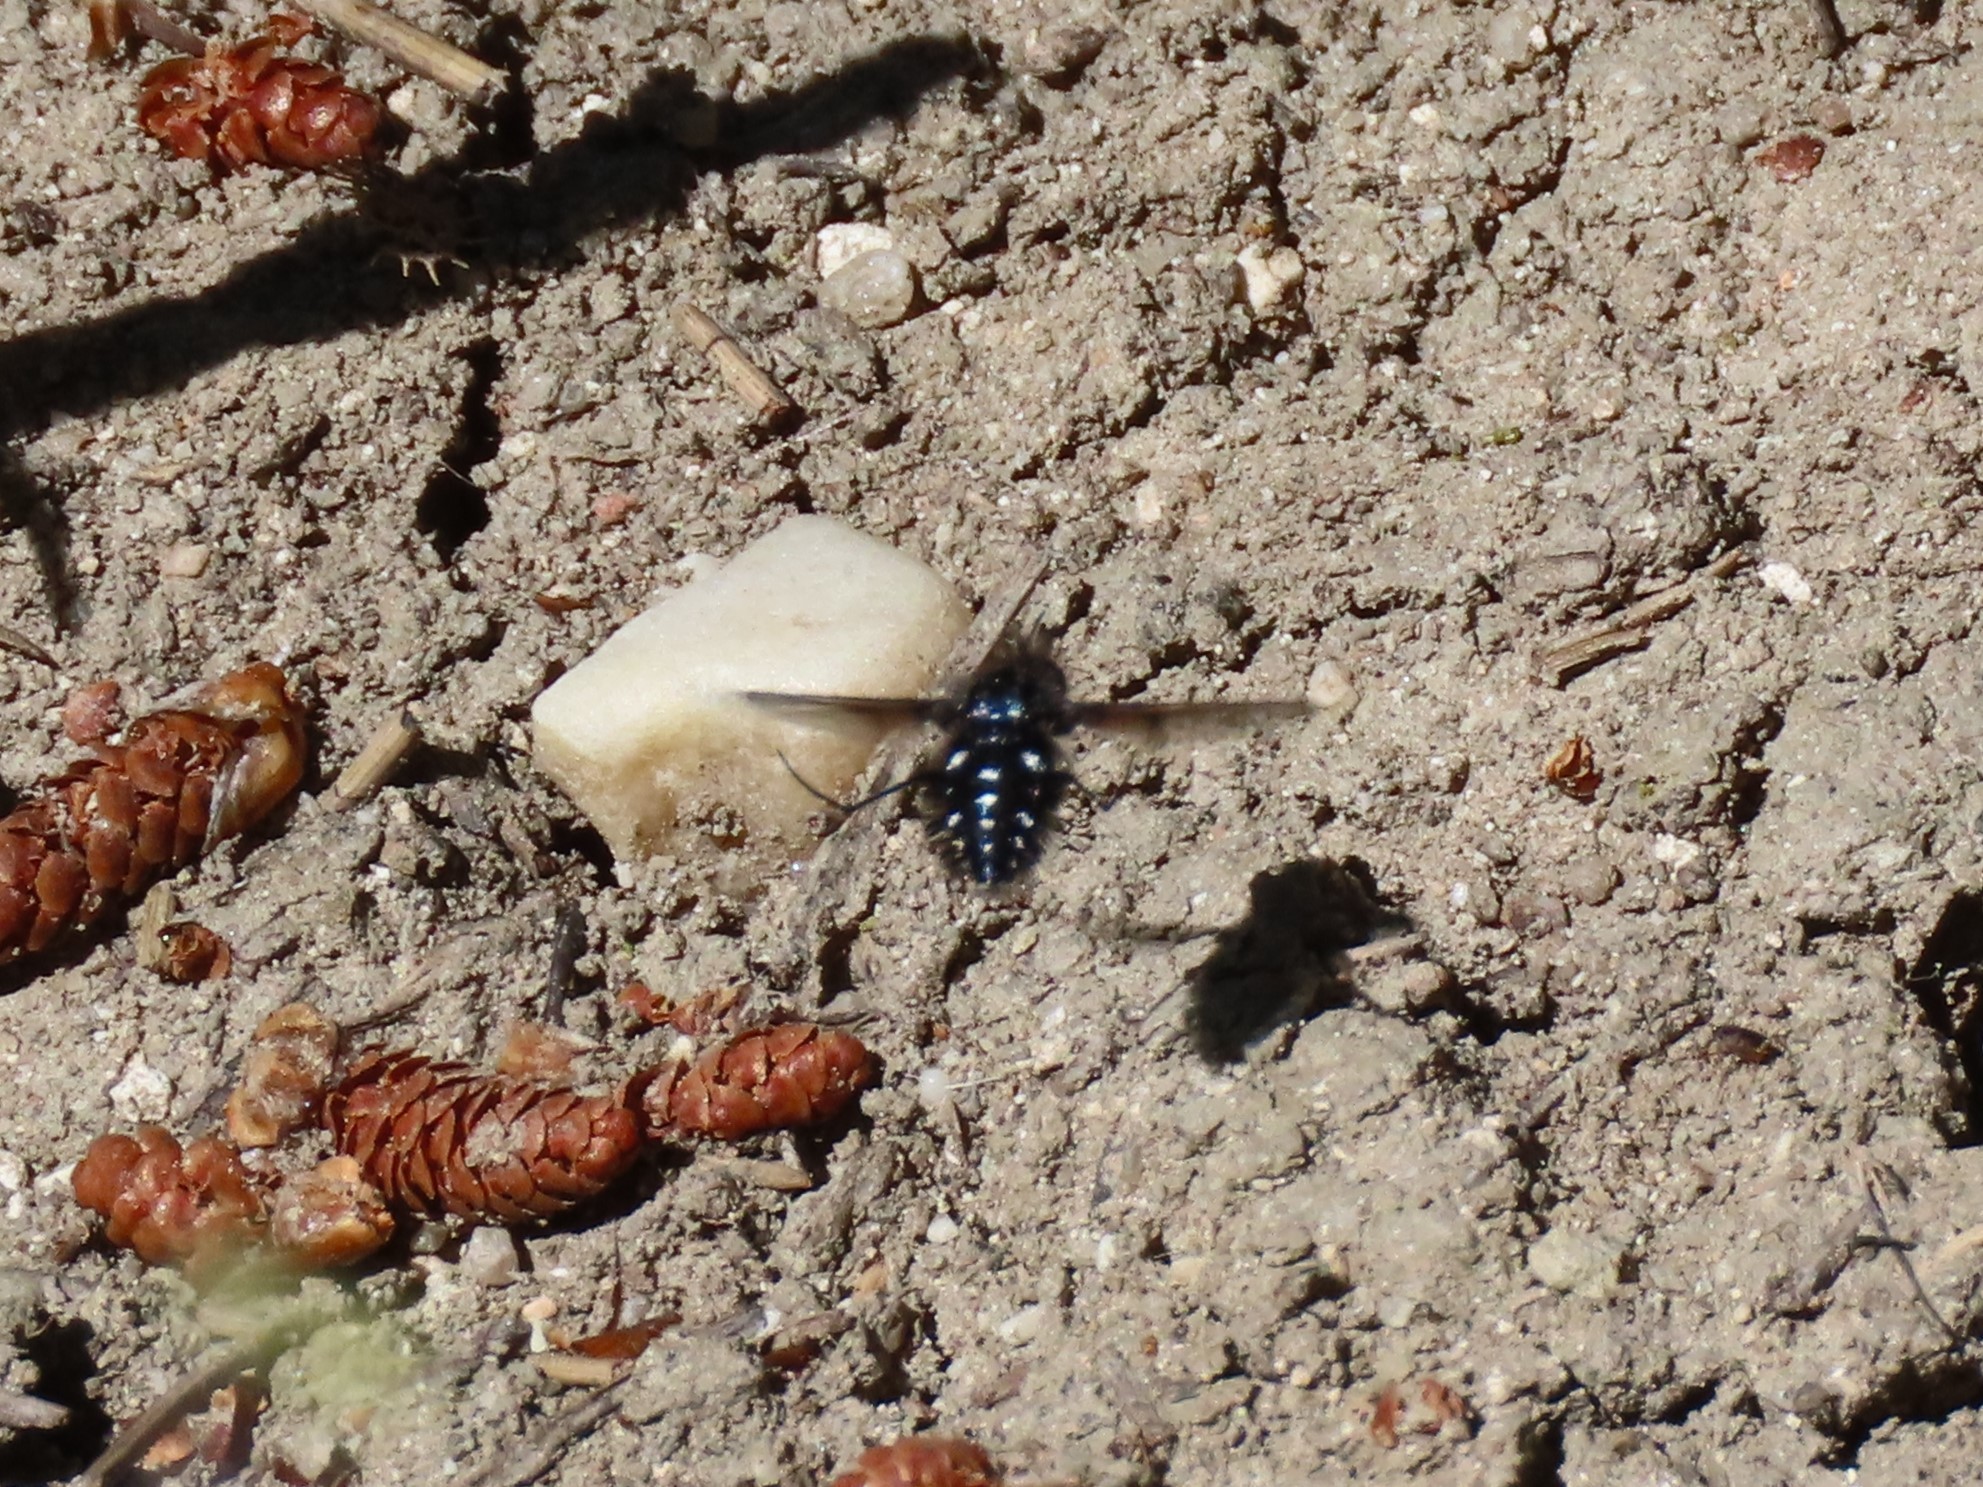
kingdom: Animalia
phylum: Arthropoda
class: Insecta
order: Diptera
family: Bombyliidae
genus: Bombylella
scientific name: Bombylella atra
